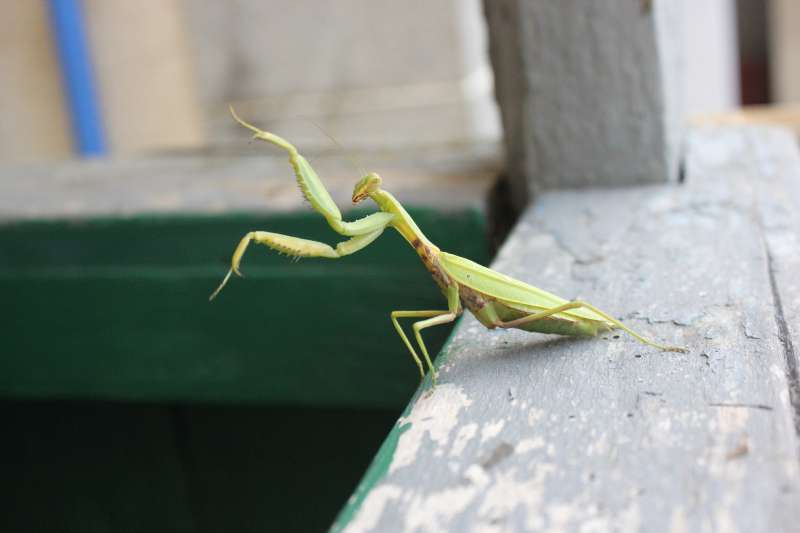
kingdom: Animalia
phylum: Arthropoda
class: Insecta
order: Mantodea
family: Mantidae
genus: Hierodula
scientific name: Hierodula transcaucasica
